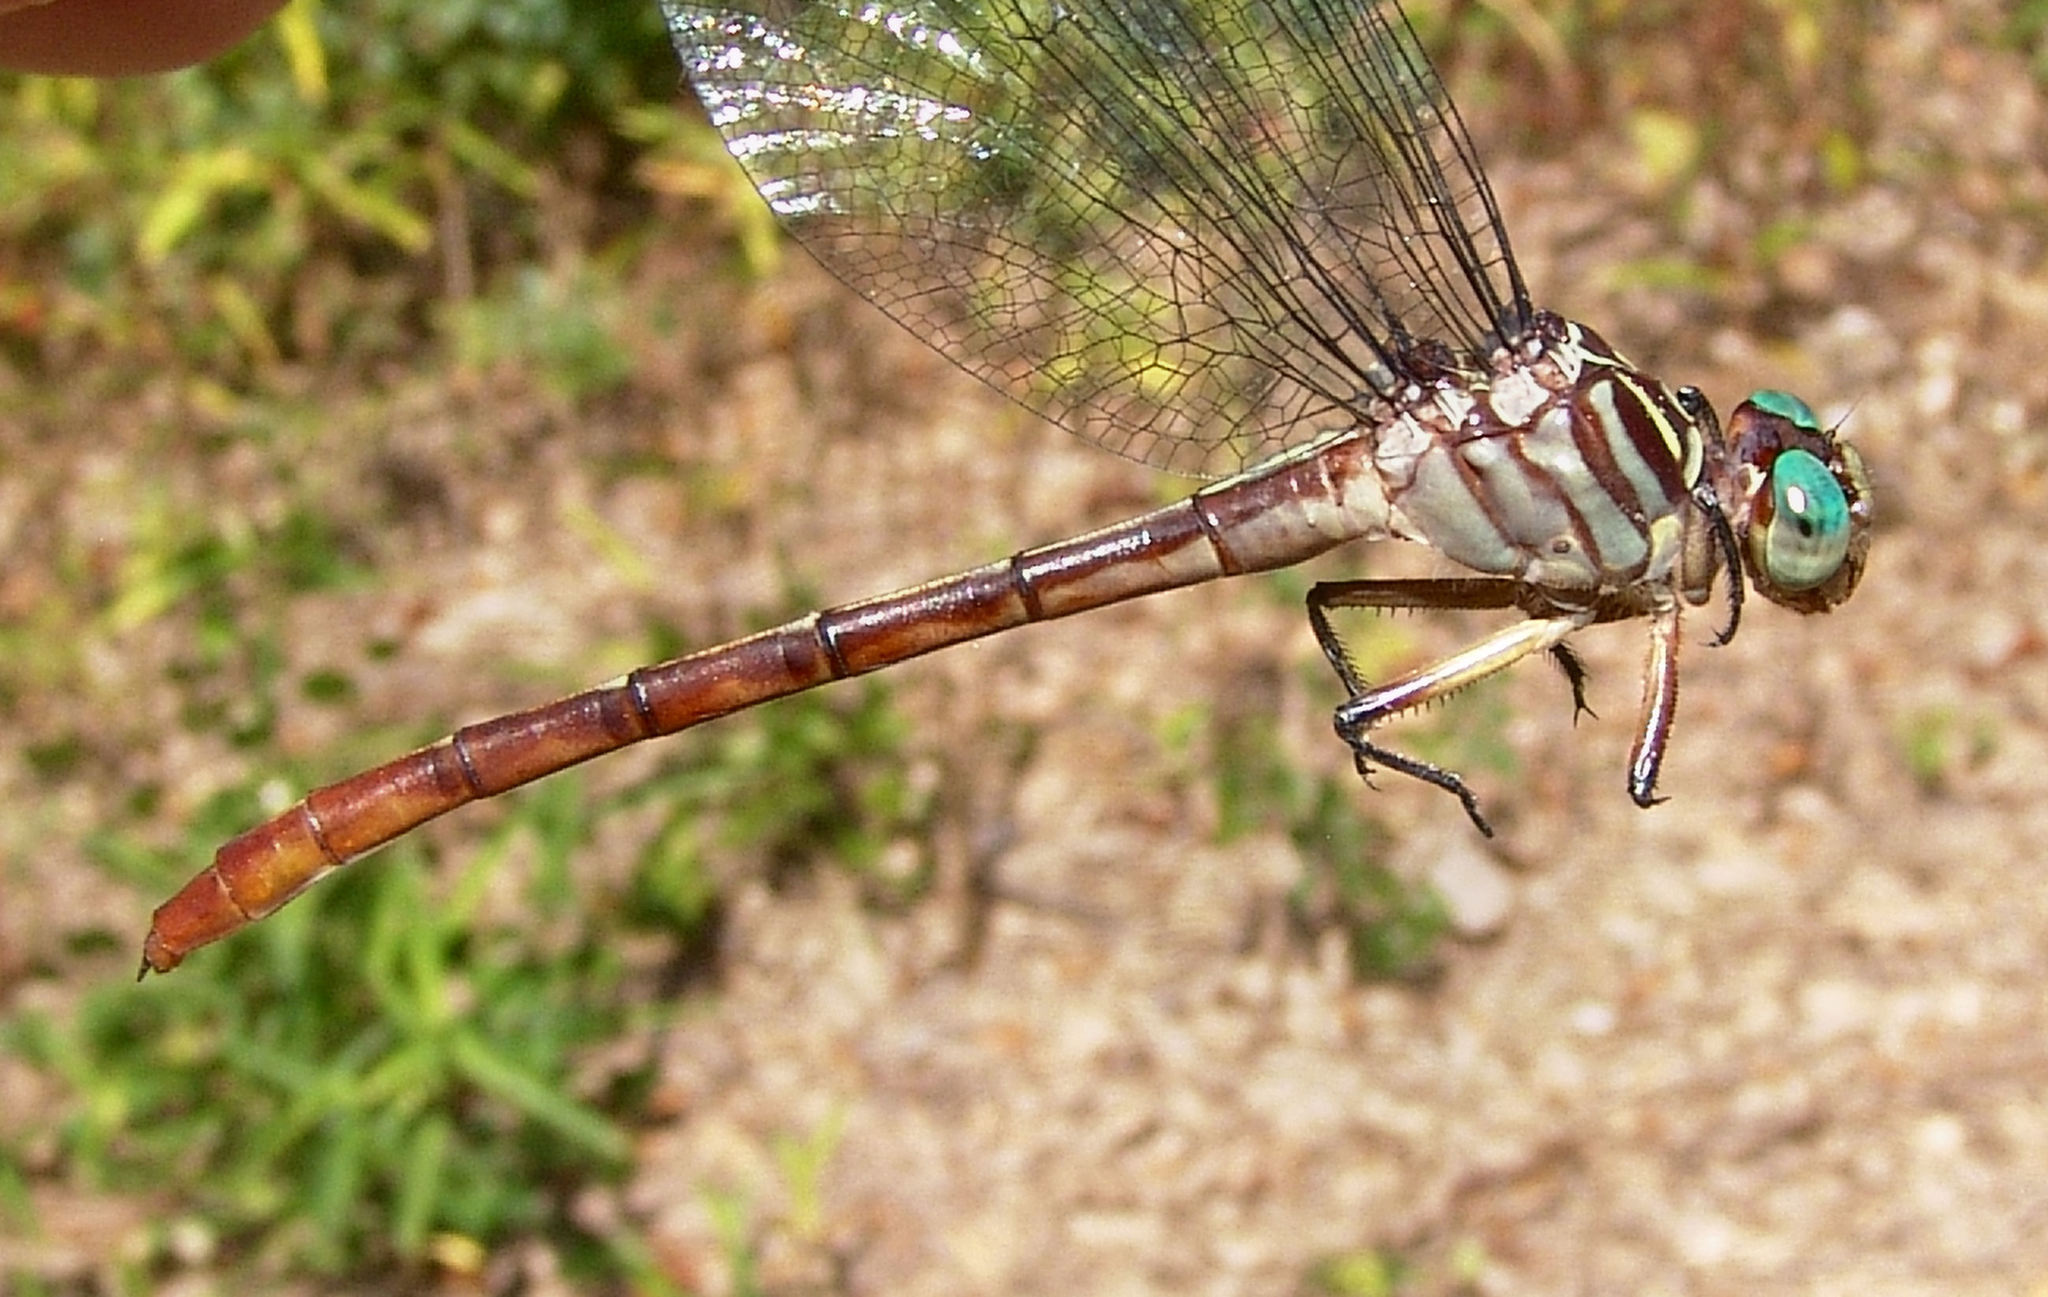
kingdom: Animalia
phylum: Arthropoda
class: Insecta
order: Odonata
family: Gomphidae
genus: Stylurus
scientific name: Stylurus plagiatus
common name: Russet-tipped clubtail
